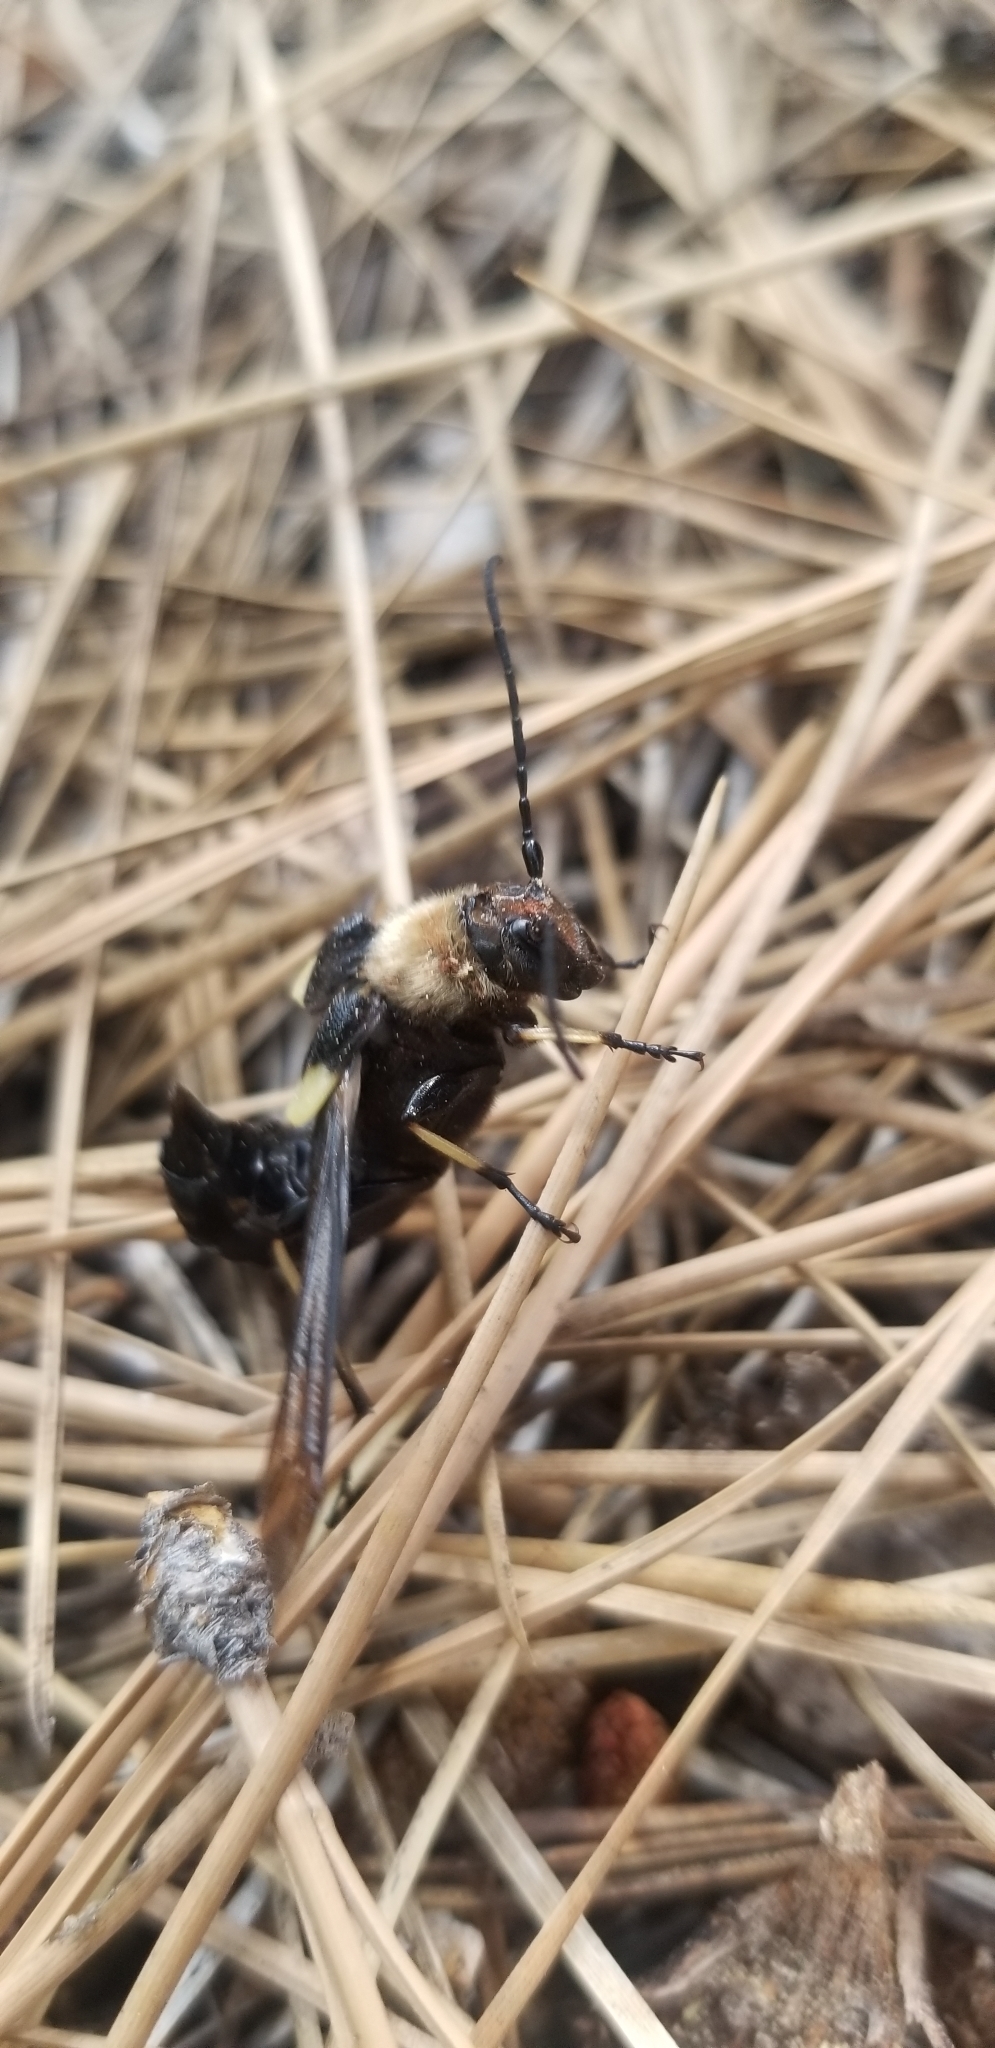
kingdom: Animalia
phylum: Arthropoda
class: Insecta
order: Coleoptera
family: Cerambycidae
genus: Ulochaetes
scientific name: Ulochaetes leoninus
